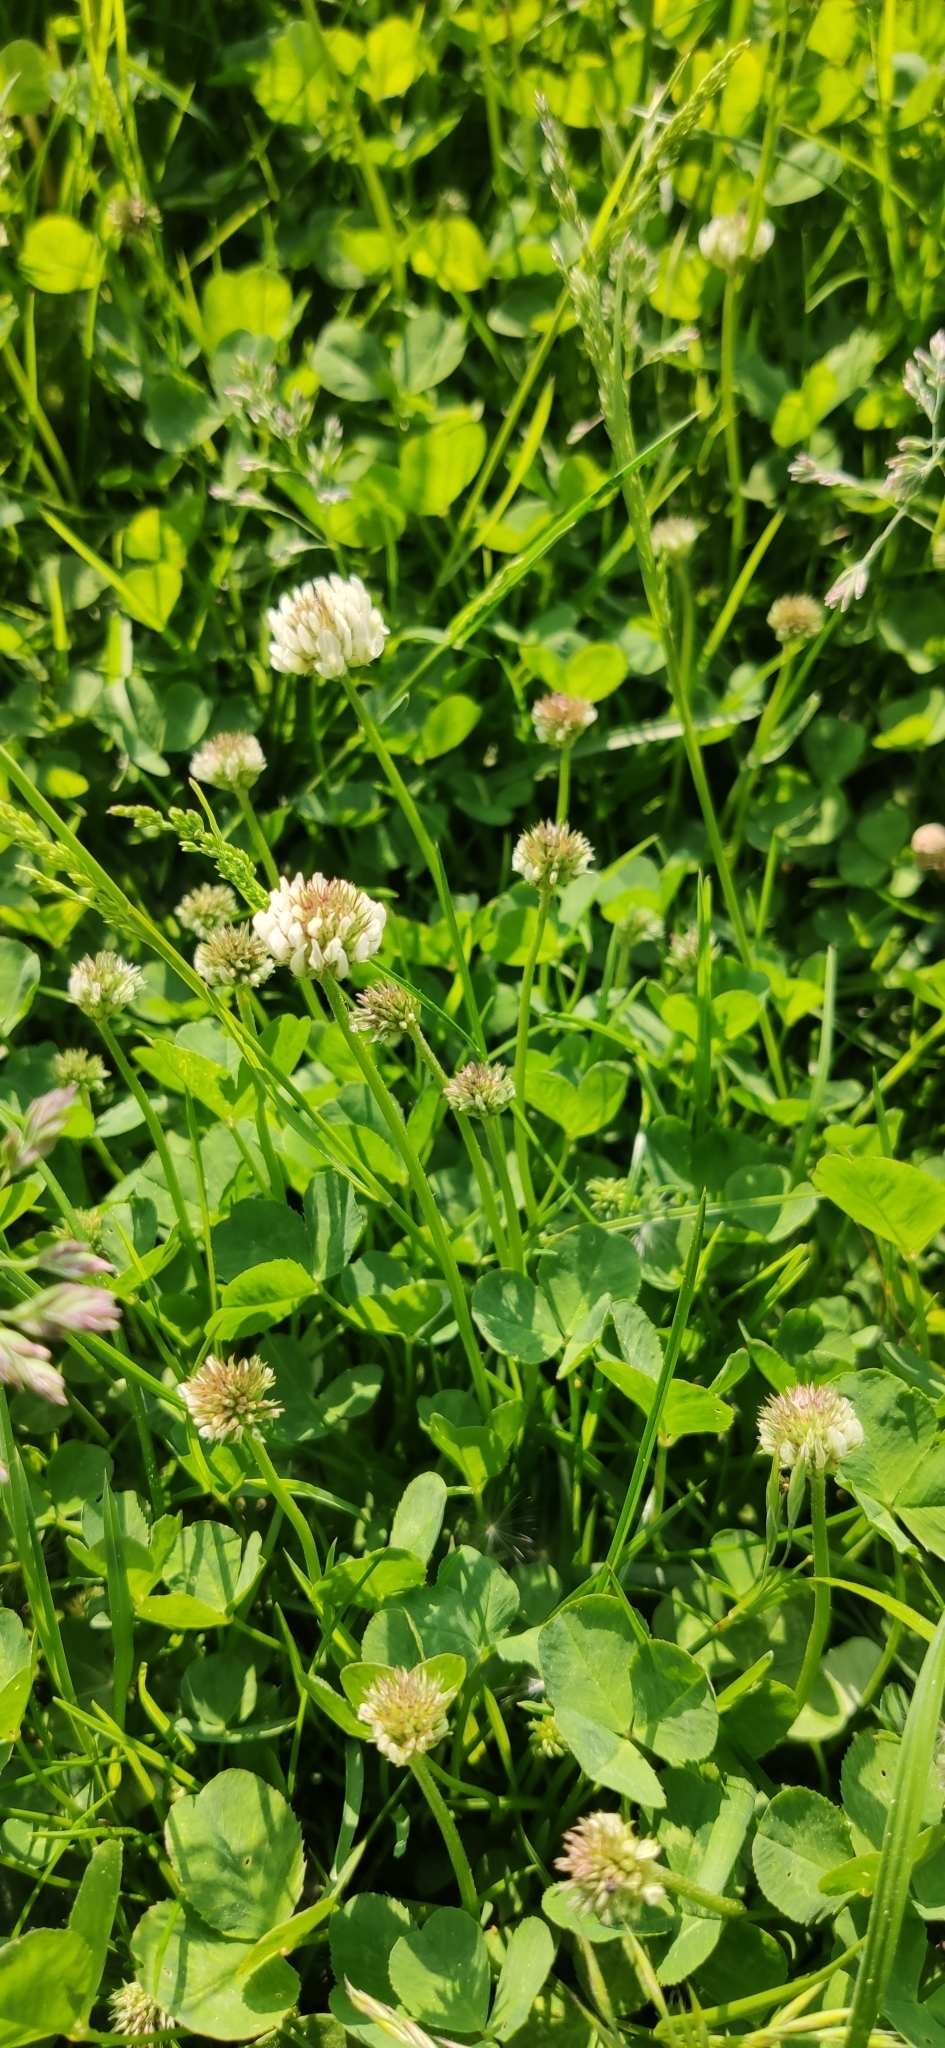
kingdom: Plantae
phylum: Tracheophyta
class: Magnoliopsida
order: Fabales
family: Fabaceae
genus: Trifolium
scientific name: Trifolium repens
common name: White clover
